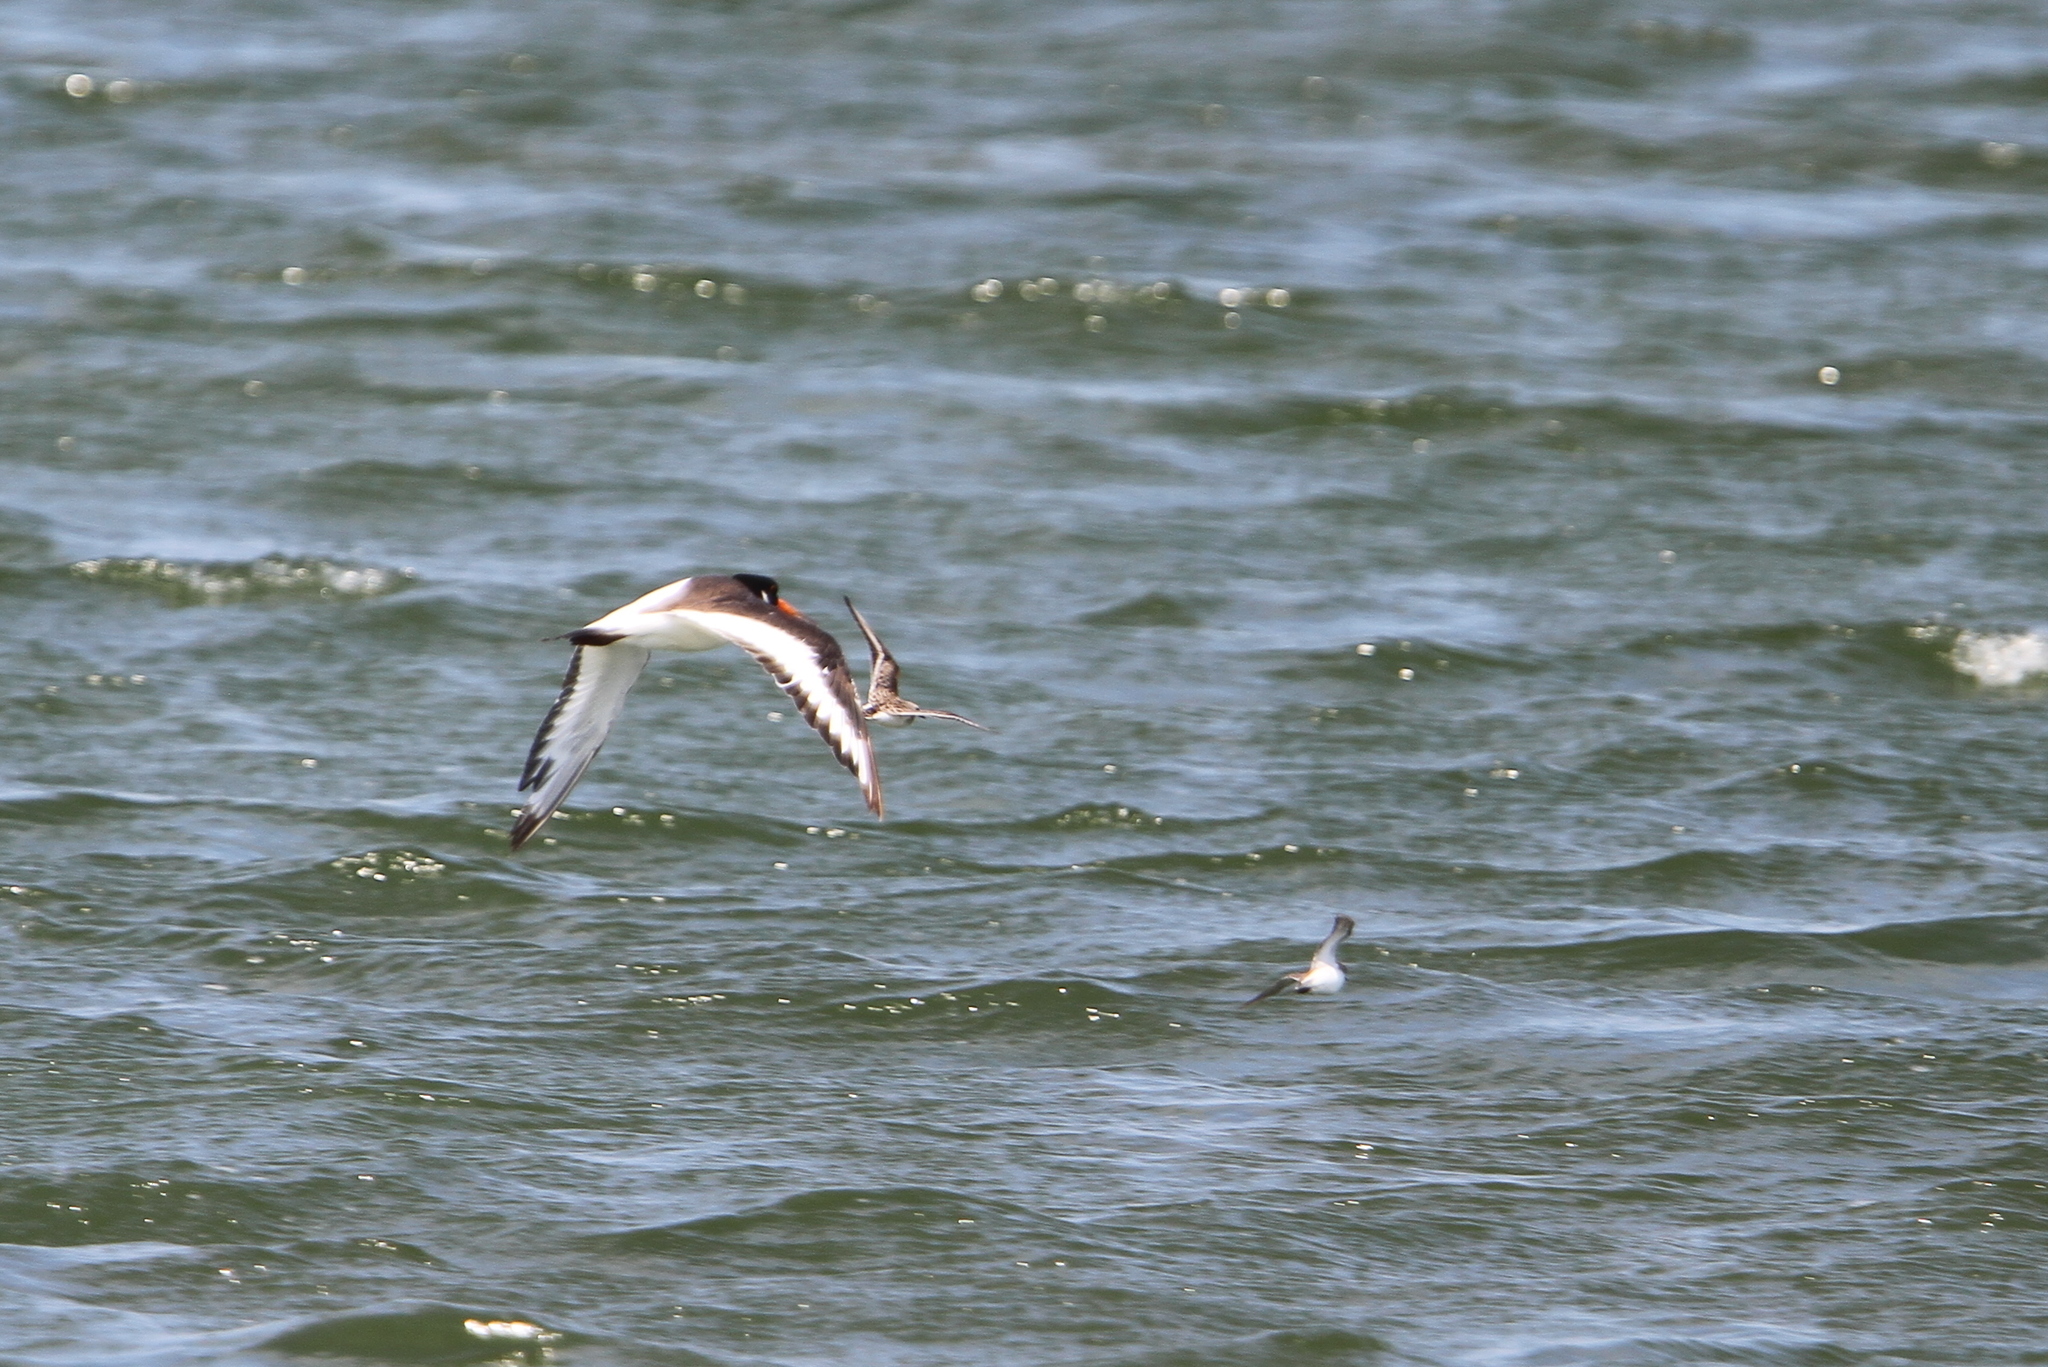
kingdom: Animalia
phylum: Chordata
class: Aves
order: Charadriiformes
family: Haematopodidae
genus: Haematopus
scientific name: Haematopus ostralegus
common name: Eurasian oystercatcher
